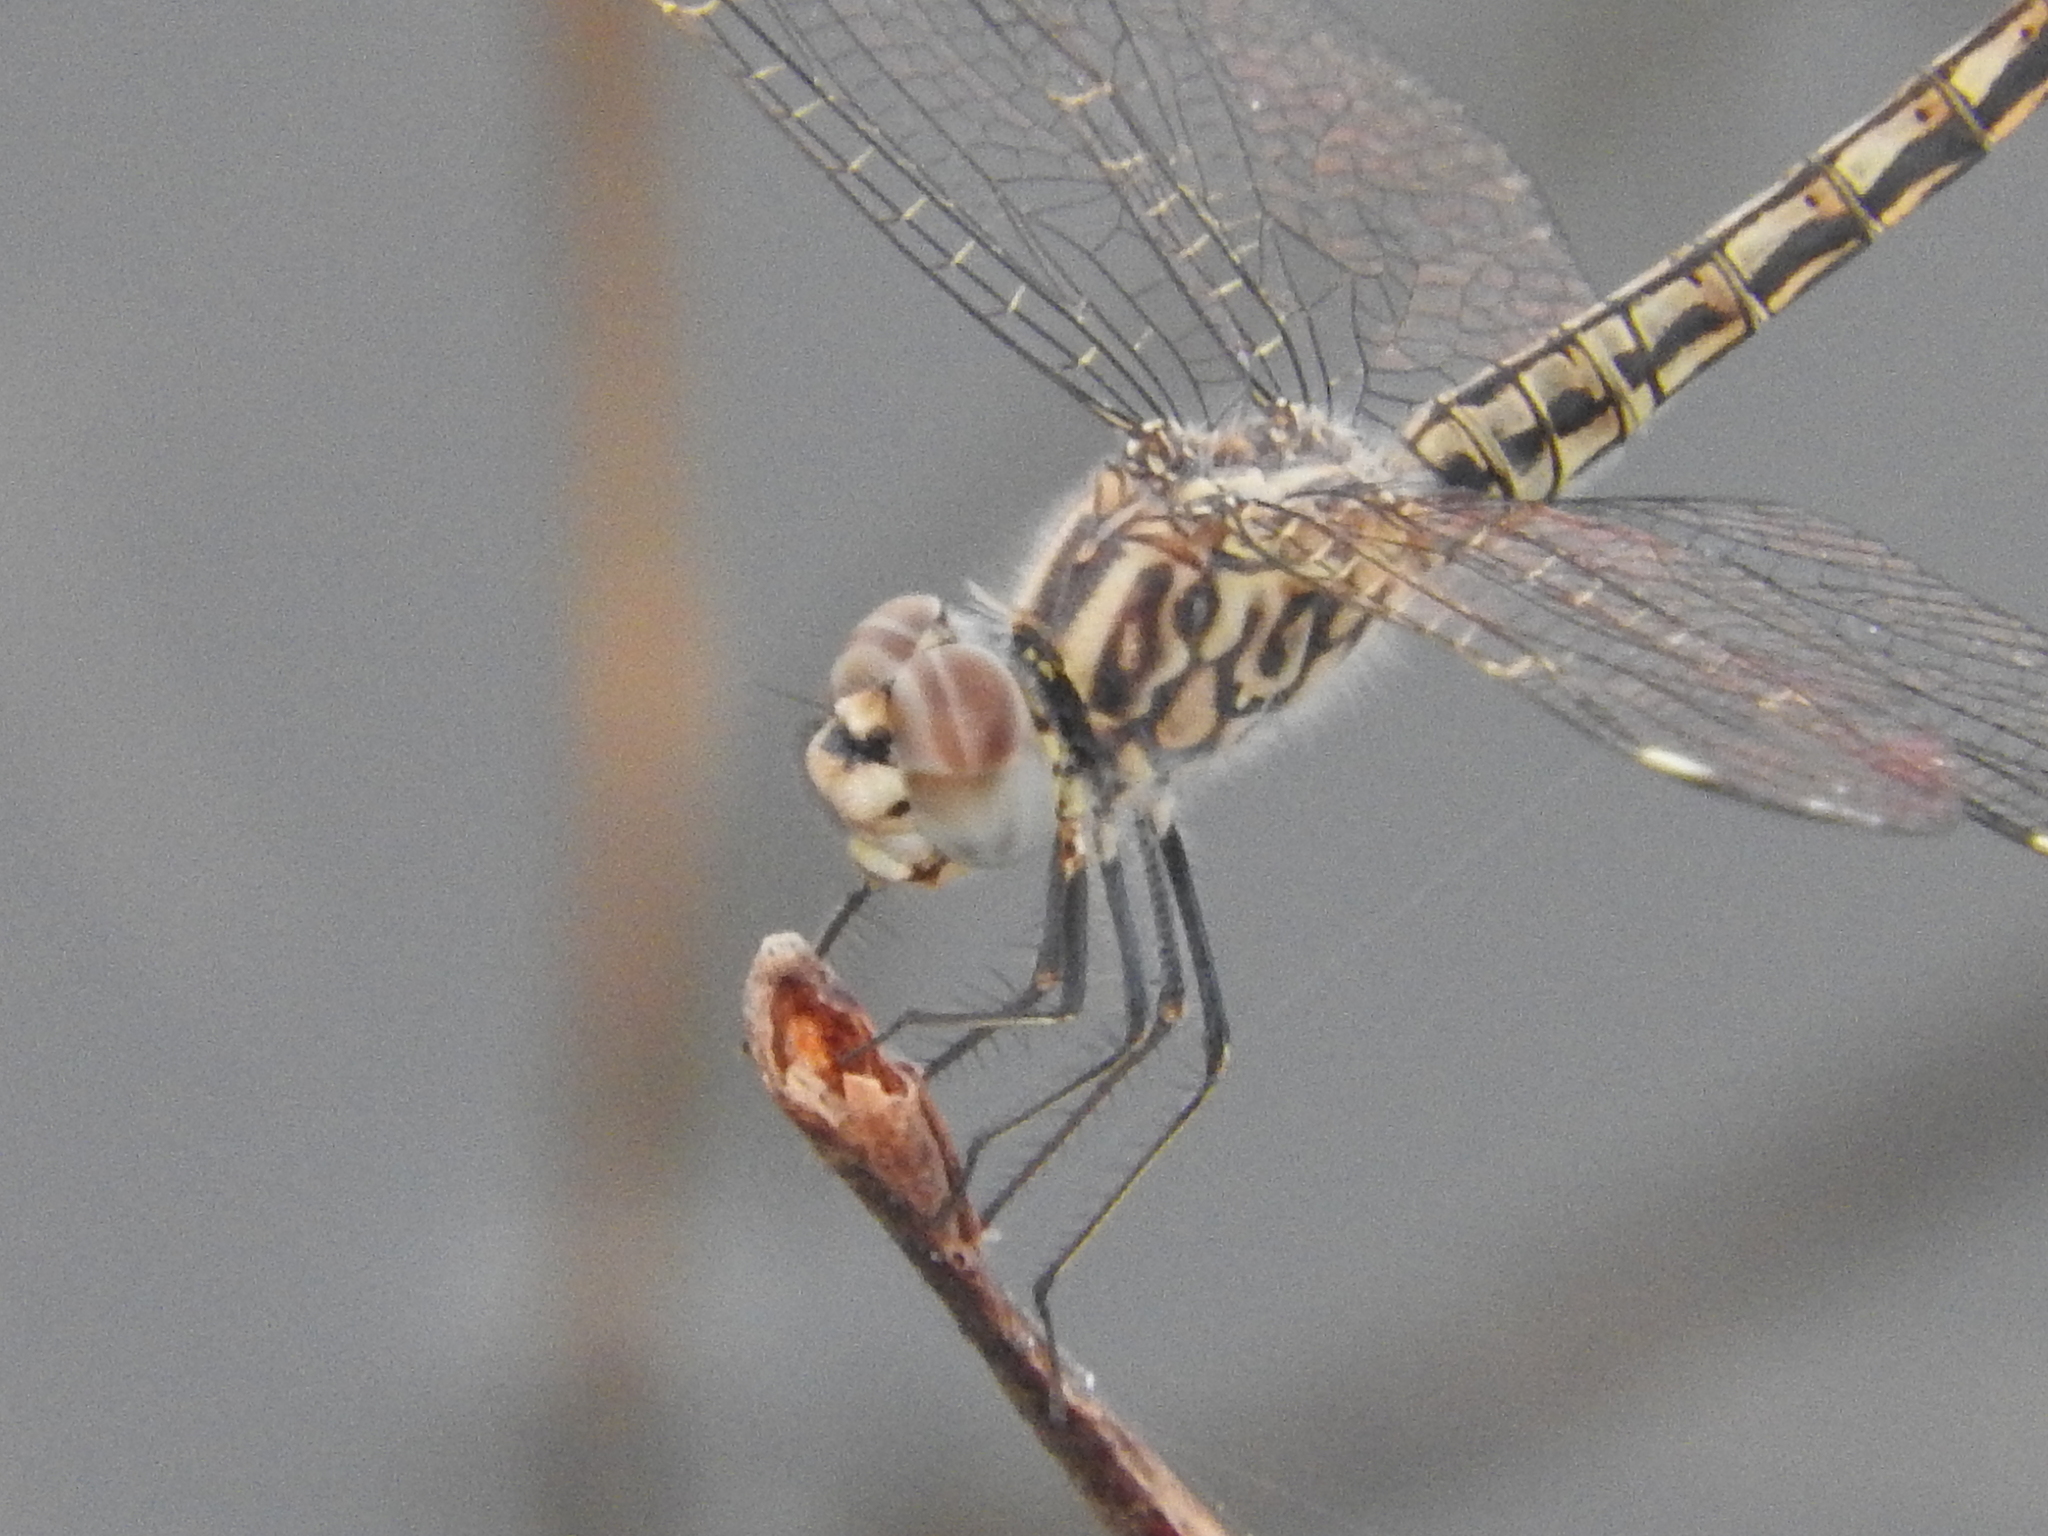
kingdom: Animalia
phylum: Arthropoda
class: Insecta
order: Odonata
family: Libellulidae
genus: Brachythemis
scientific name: Brachythemis leucosticta
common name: Banded groundling
